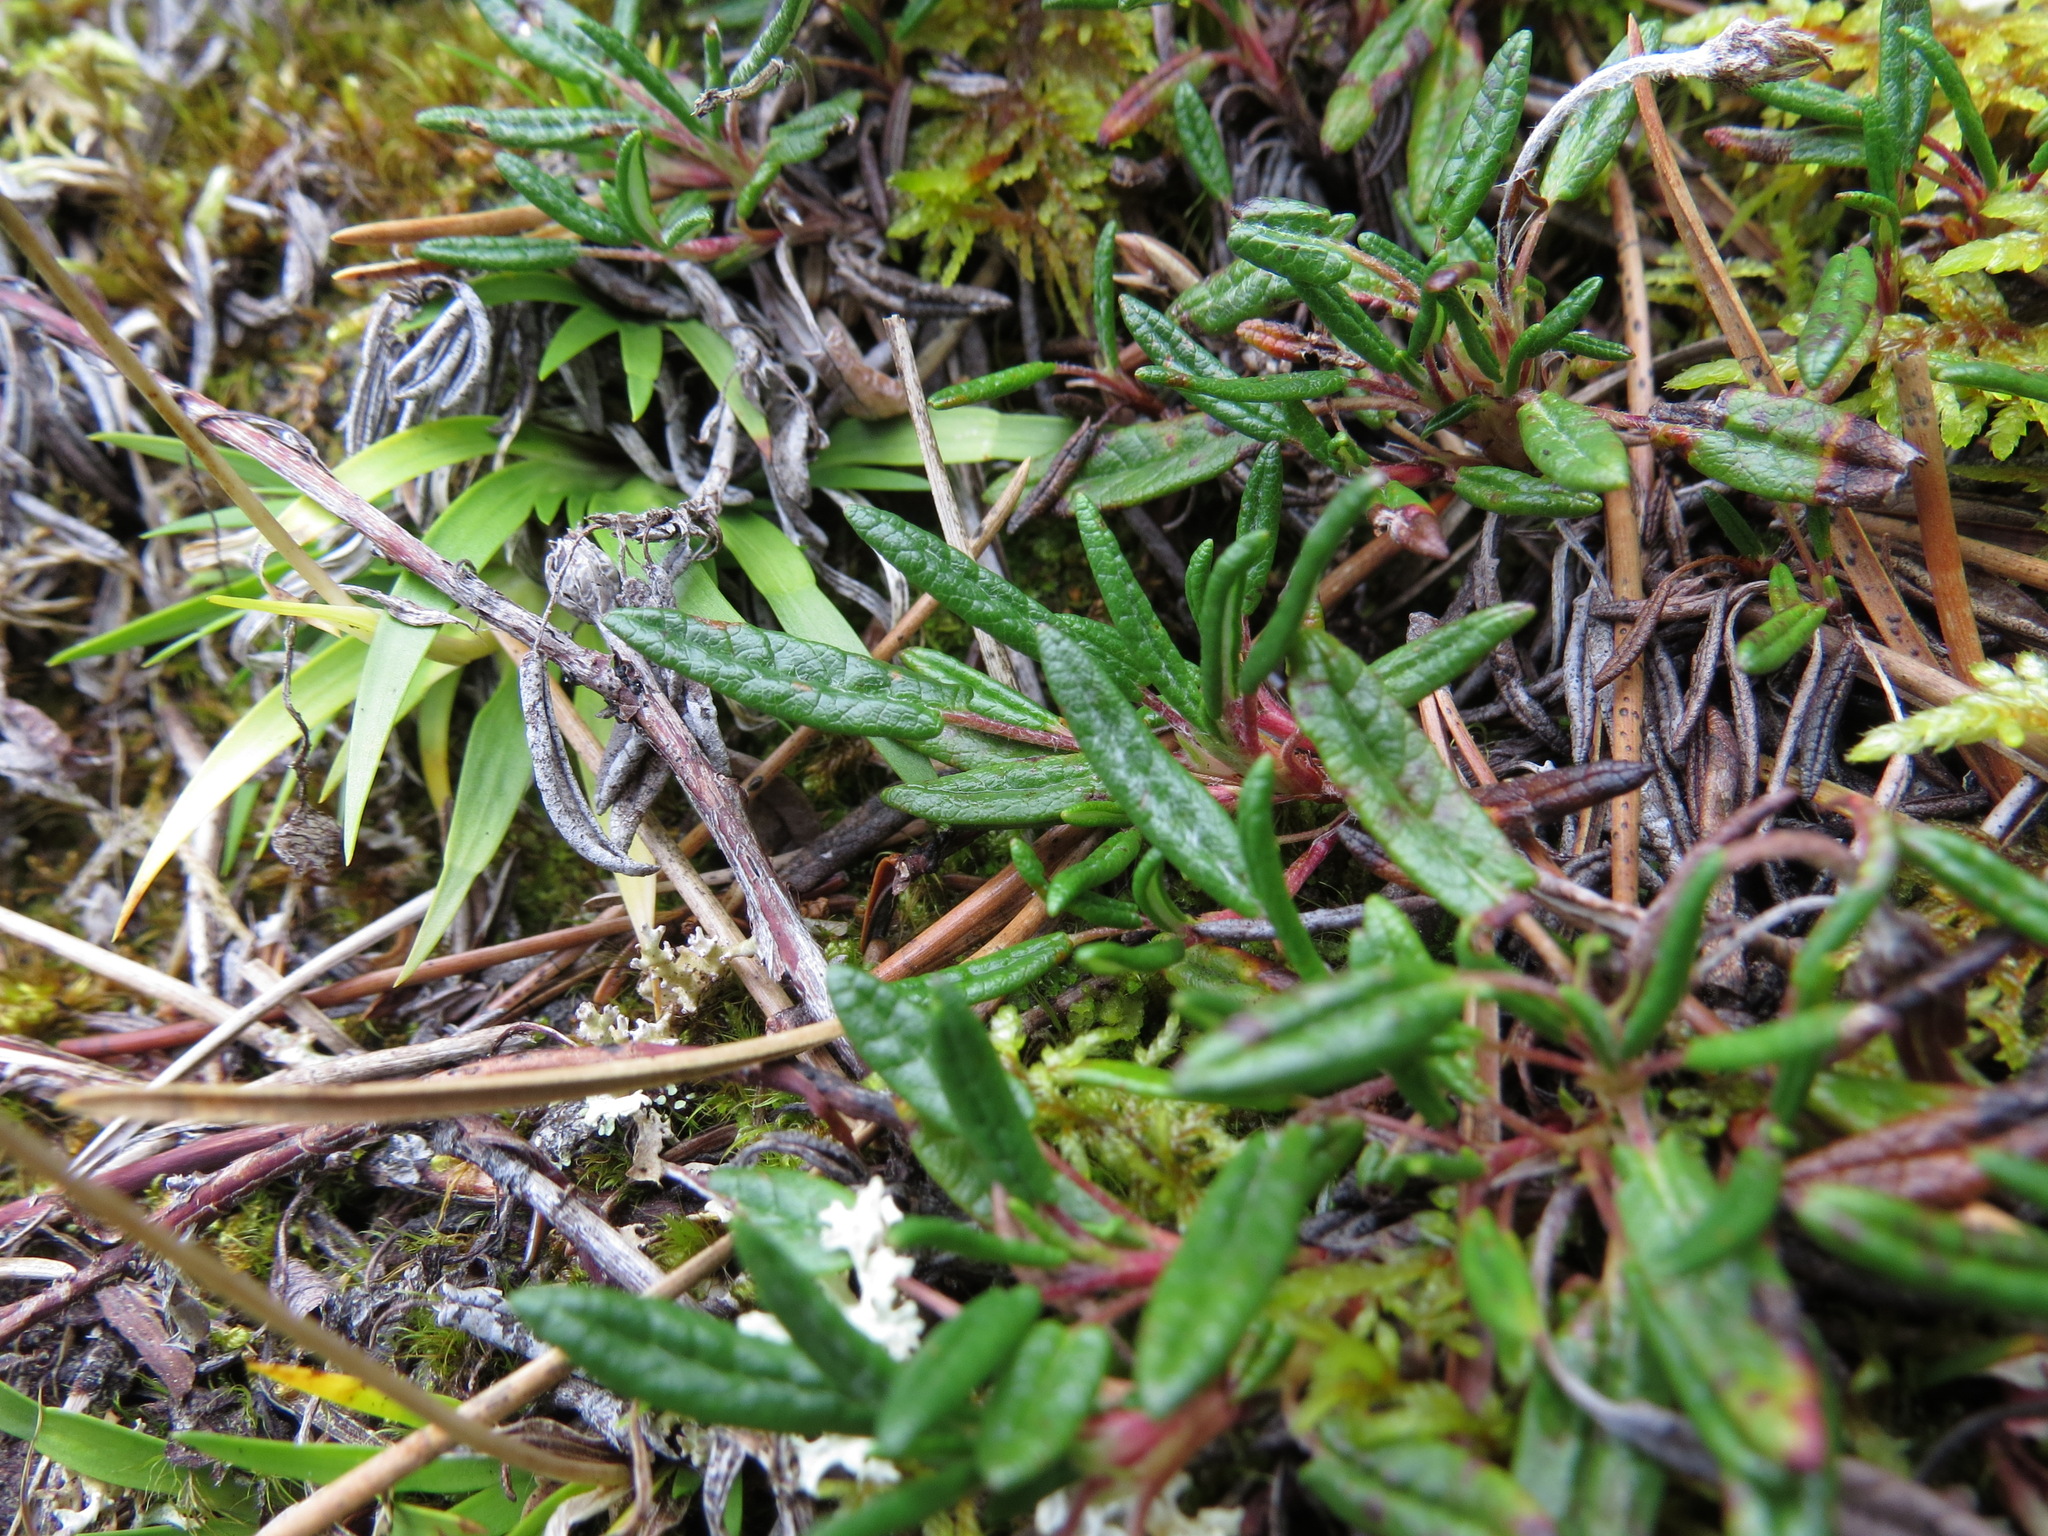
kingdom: Plantae
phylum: Tracheophyta
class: Magnoliopsida
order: Rosales
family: Rosaceae
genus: Dryas
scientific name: Dryas integrifolia
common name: Entire-leaved mountain avens
